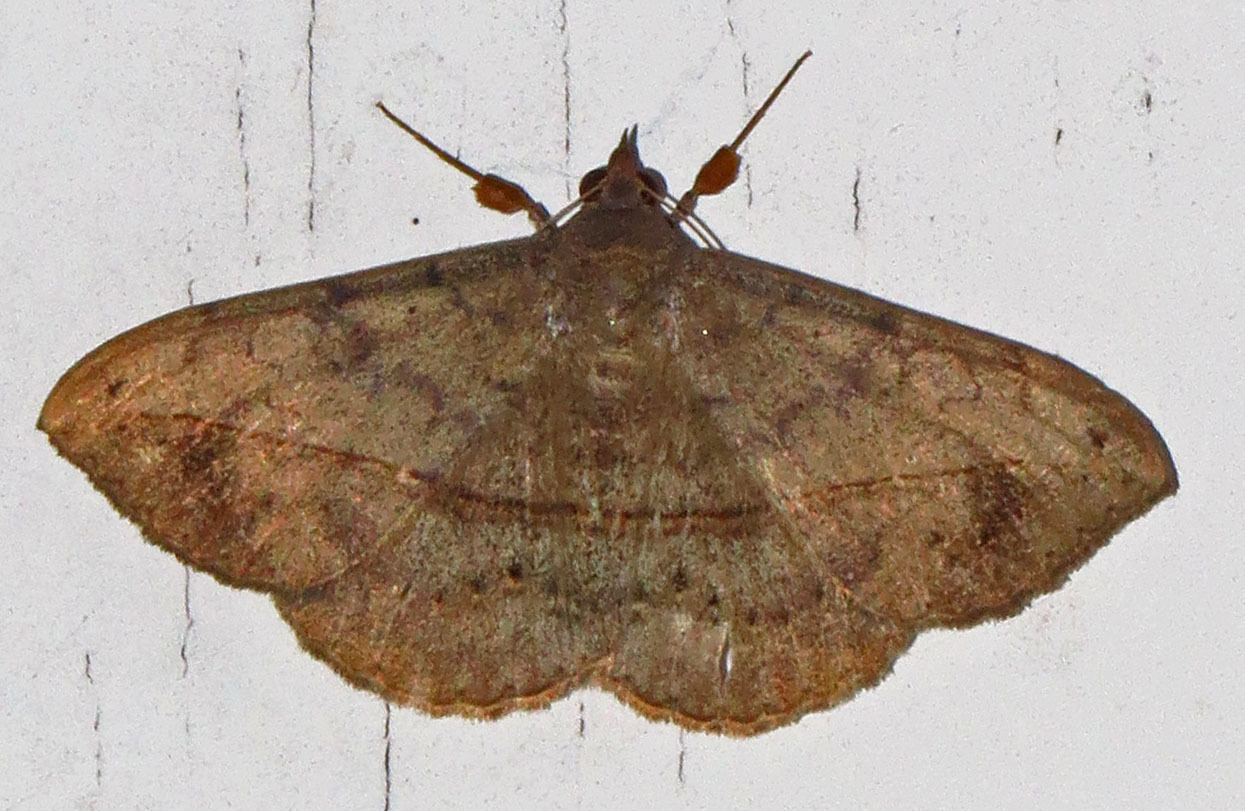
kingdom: Animalia
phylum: Arthropoda
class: Insecta
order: Lepidoptera
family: Erebidae
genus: Anticarsia
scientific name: Anticarsia gemmatalis
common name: Cutworm moth
